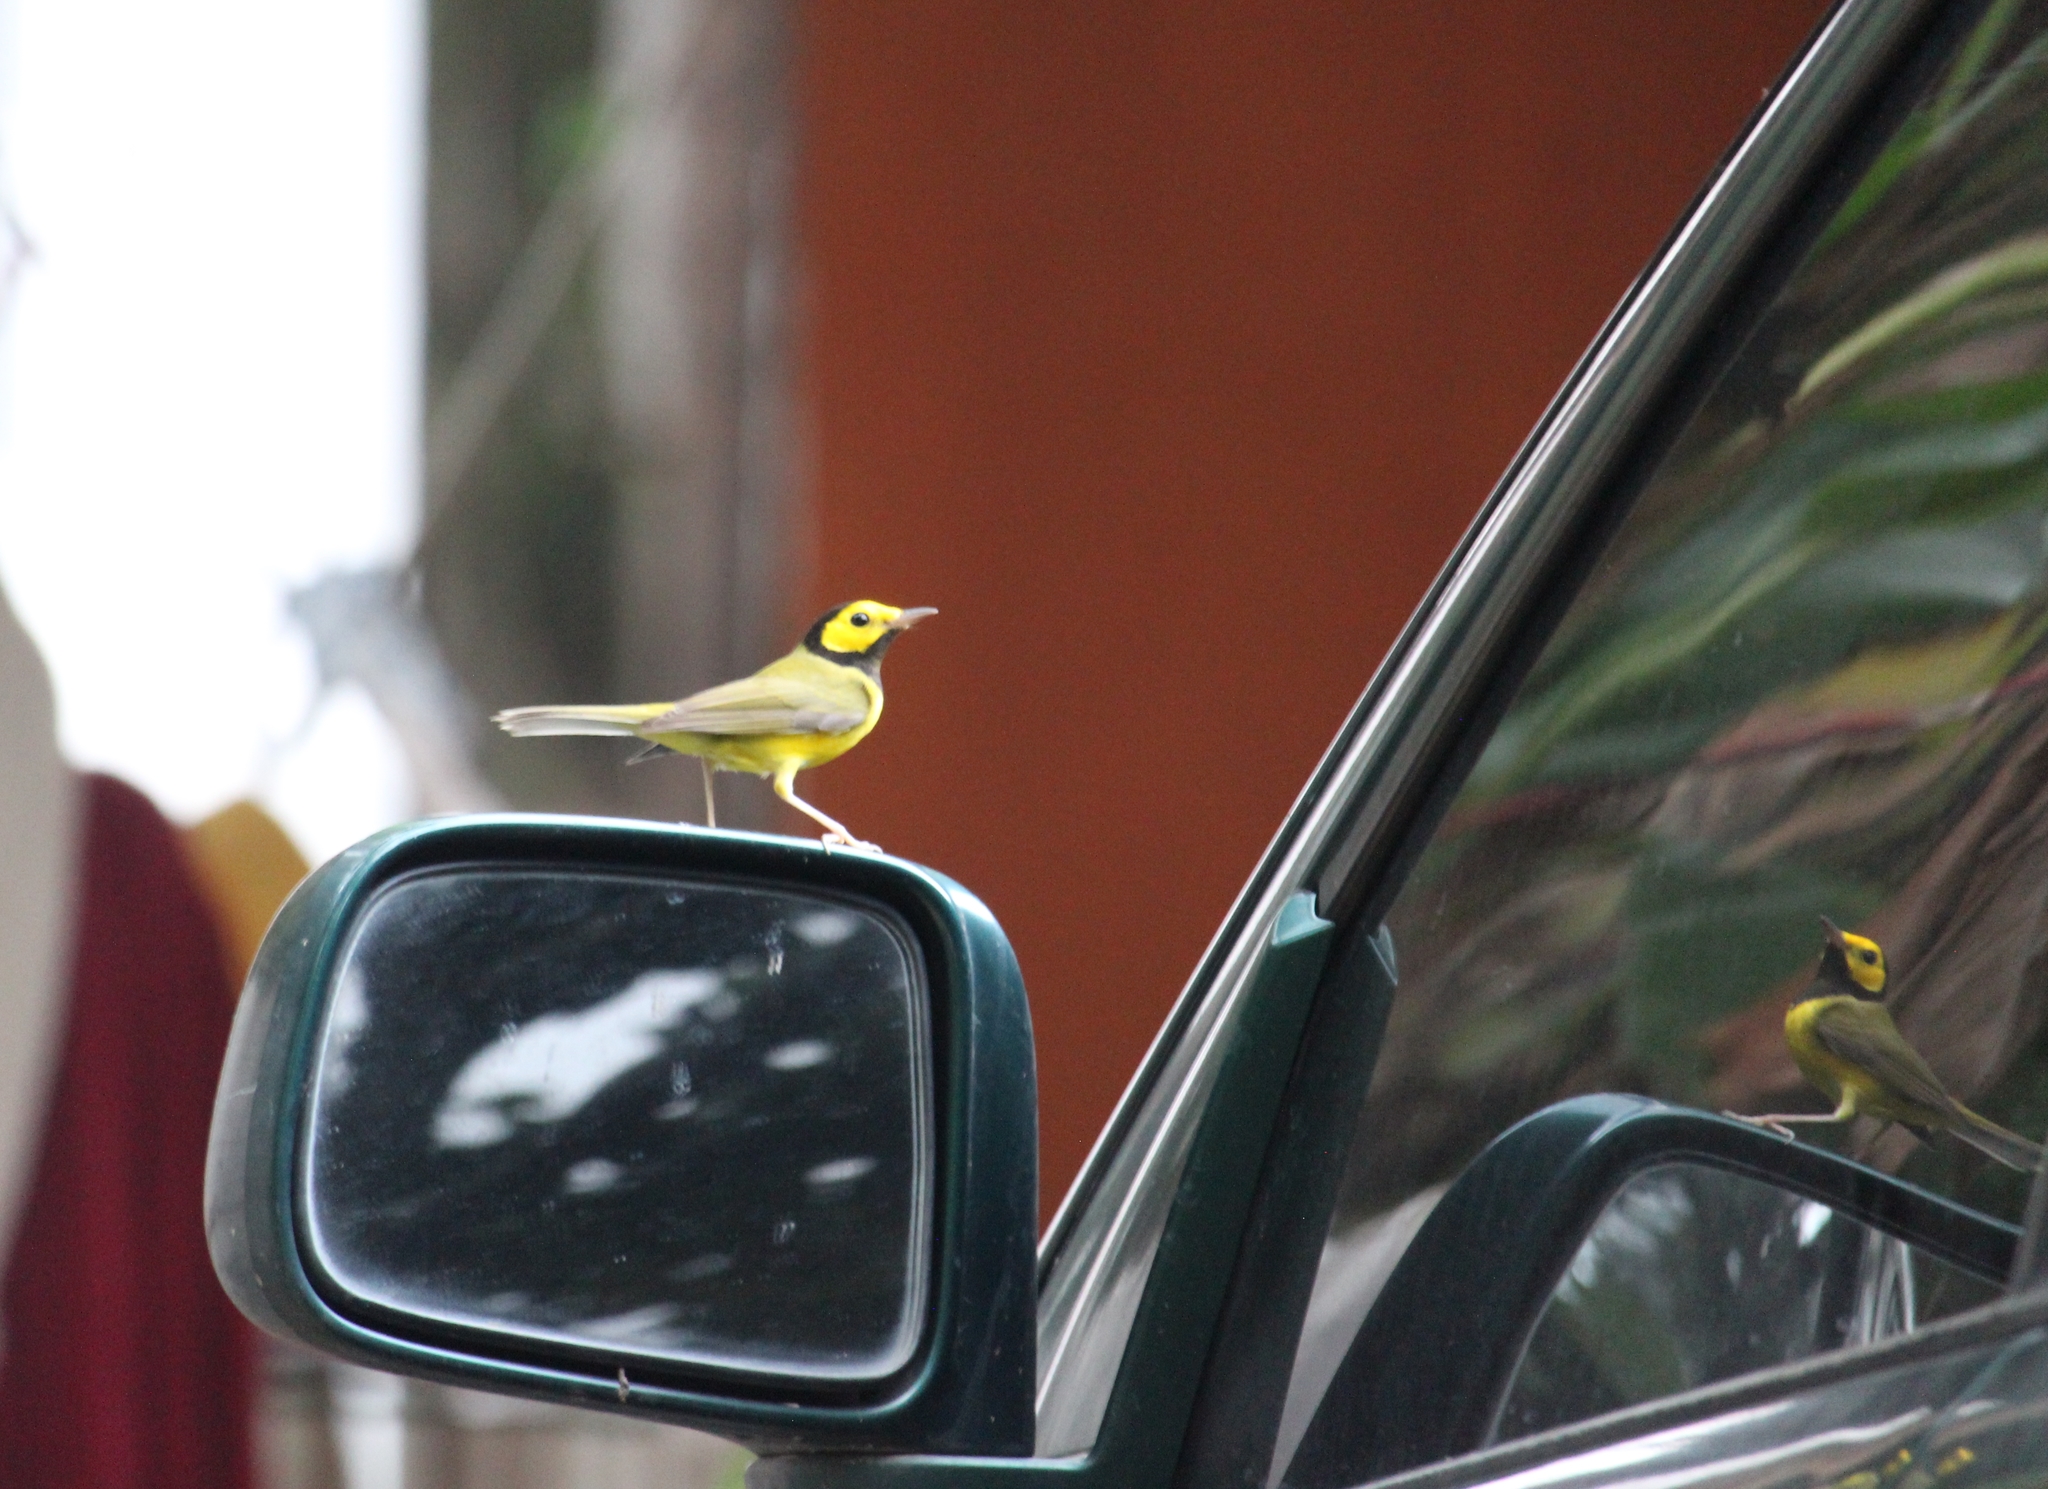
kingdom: Animalia
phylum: Chordata
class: Aves
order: Passeriformes
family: Parulidae
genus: Setophaga
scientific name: Setophaga citrina
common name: Hooded warbler
